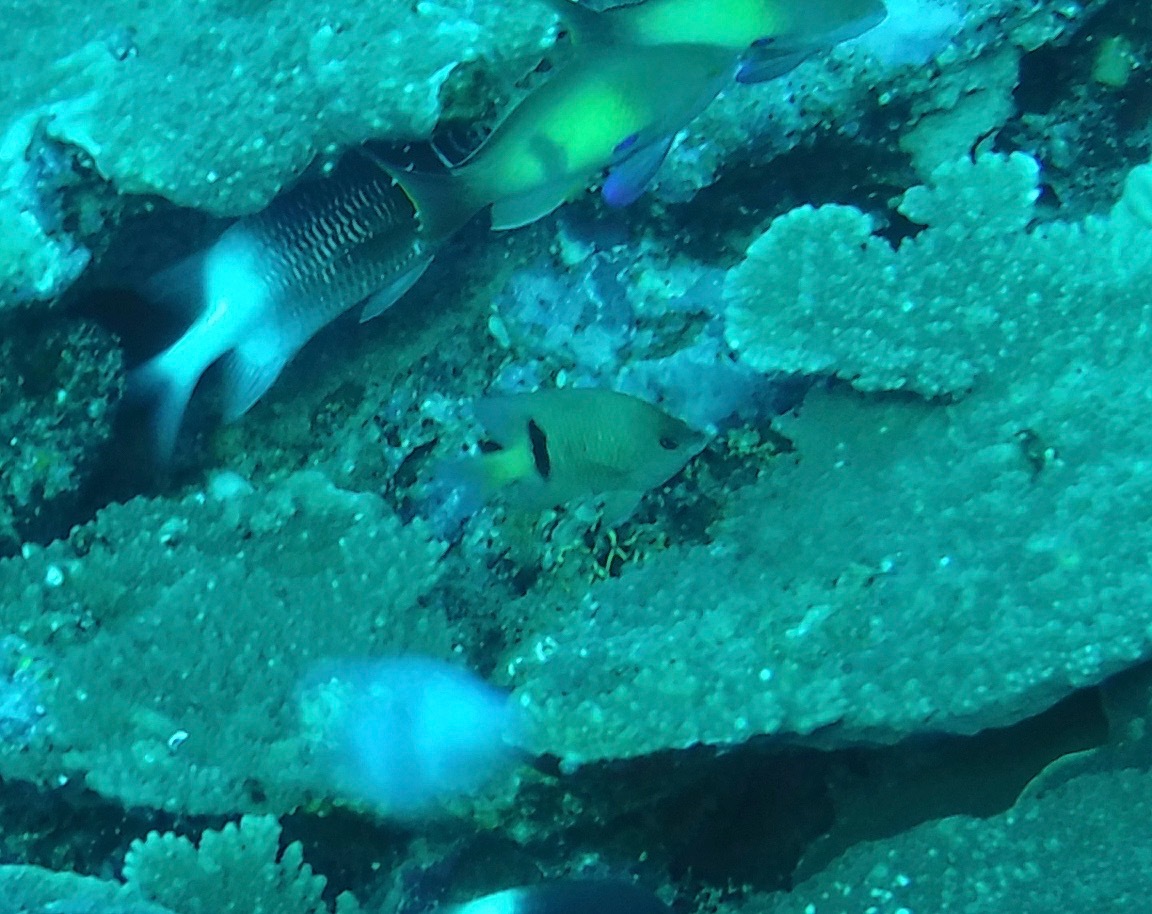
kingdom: Animalia
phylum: Chordata
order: Perciformes
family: Pomacentridae
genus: Plectroglyphidodon
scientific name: Plectroglyphidodon johnstonianus
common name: Johnston damsel
